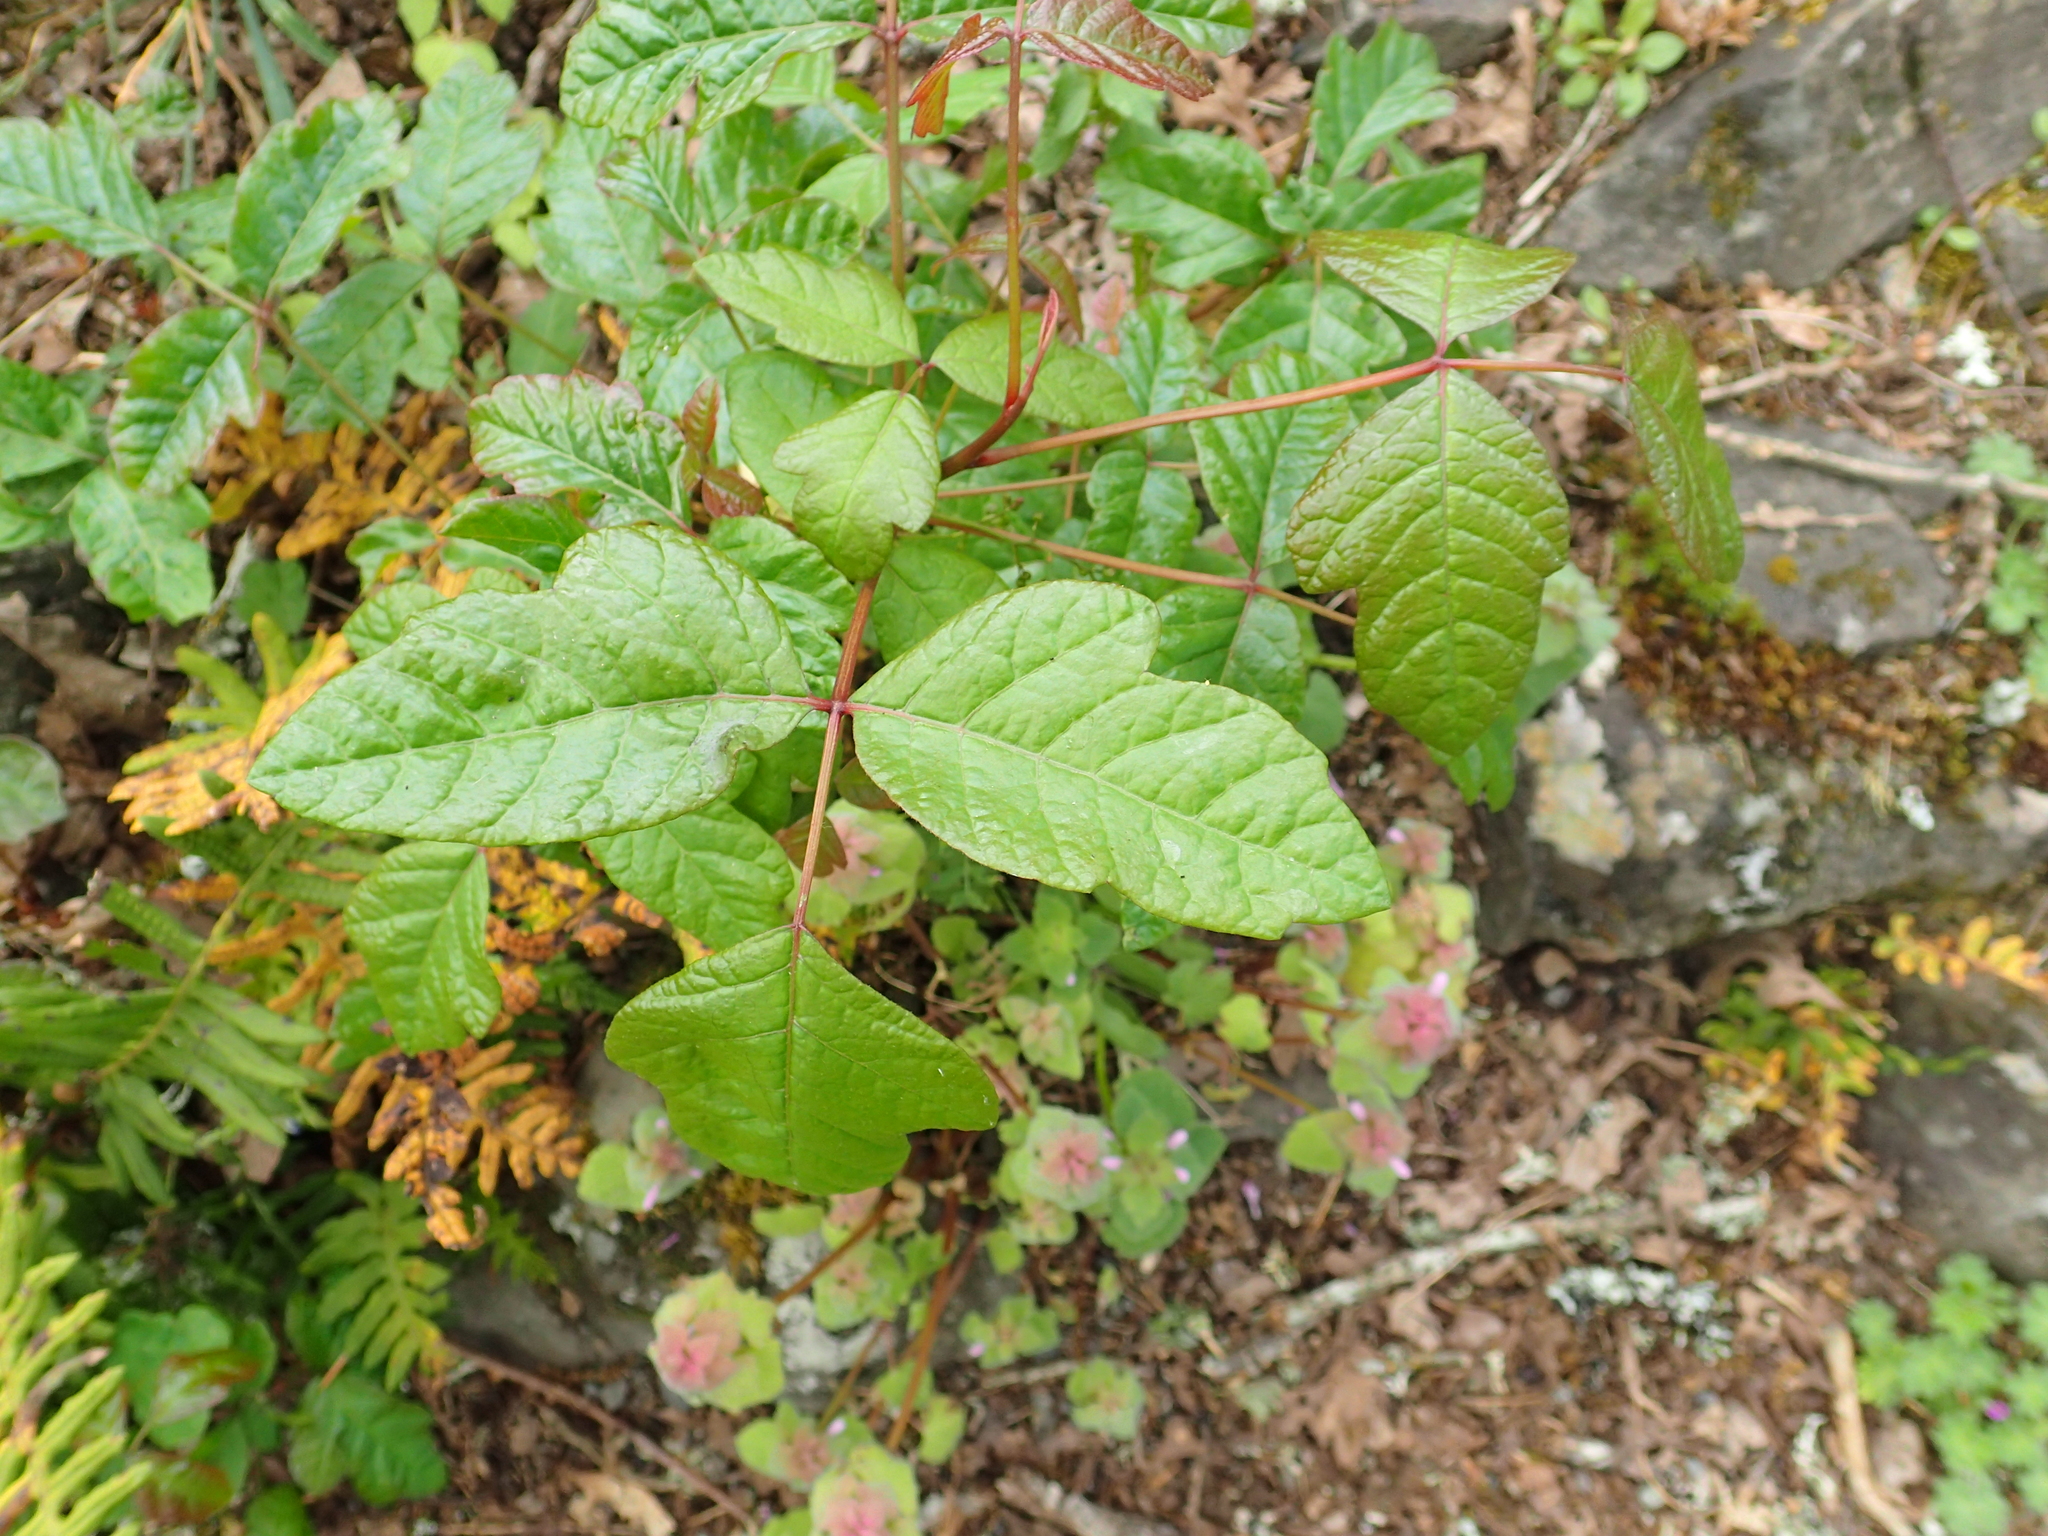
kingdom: Plantae
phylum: Tracheophyta
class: Magnoliopsida
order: Sapindales
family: Anacardiaceae
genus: Toxicodendron
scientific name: Toxicodendron diversilobum
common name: Pacific poison-oak
